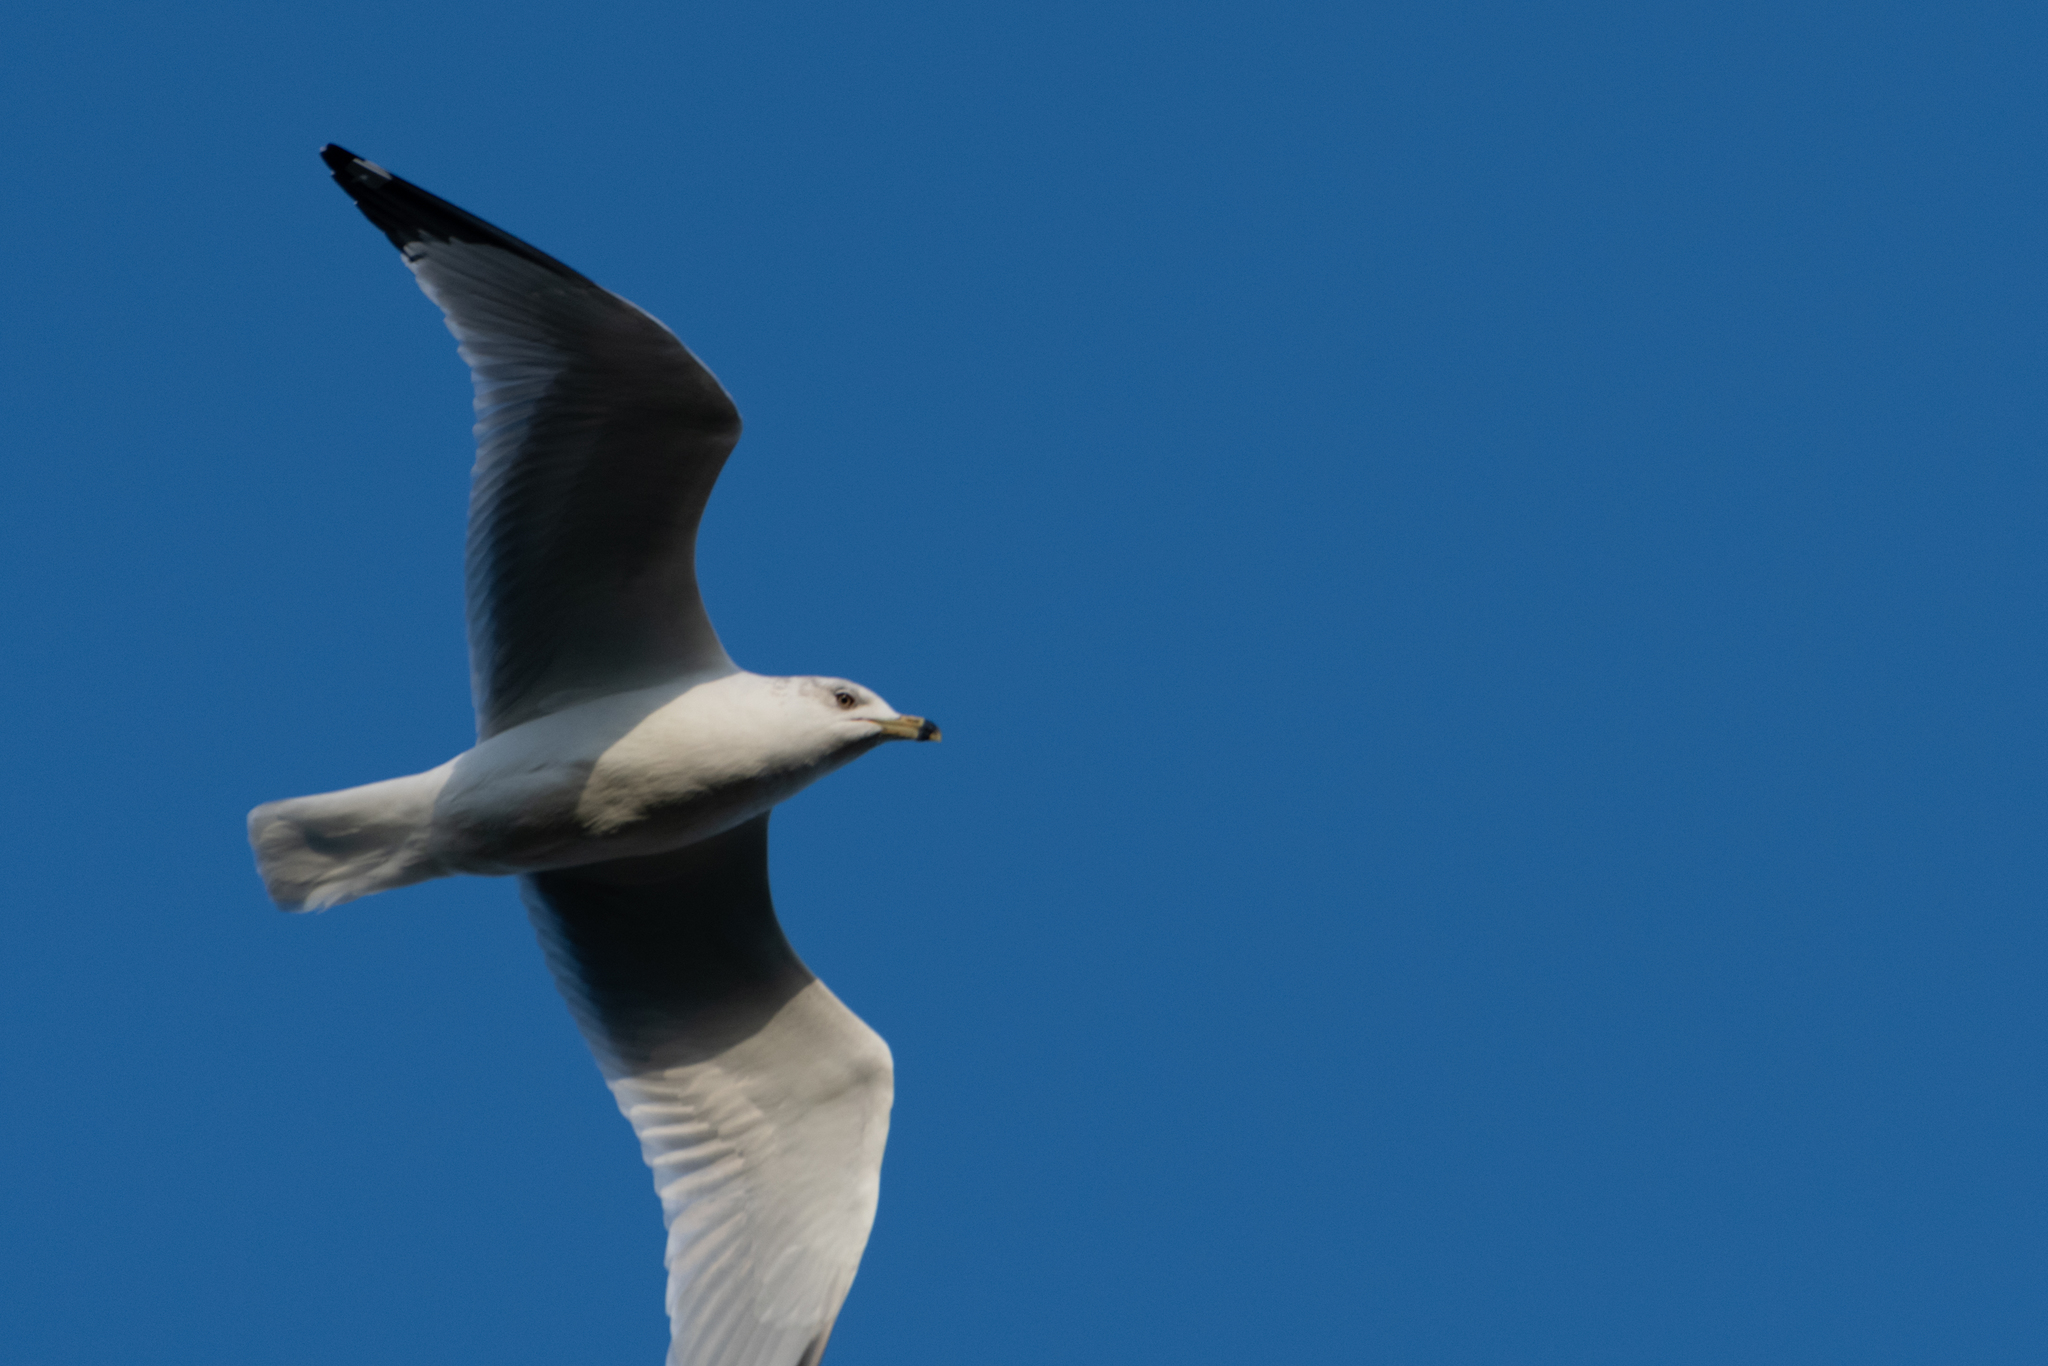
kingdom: Animalia
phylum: Chordata
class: Aves
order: Charadriiformes
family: Laridae
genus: Larus
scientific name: Larus delawarensis
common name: Ring-billed gull
